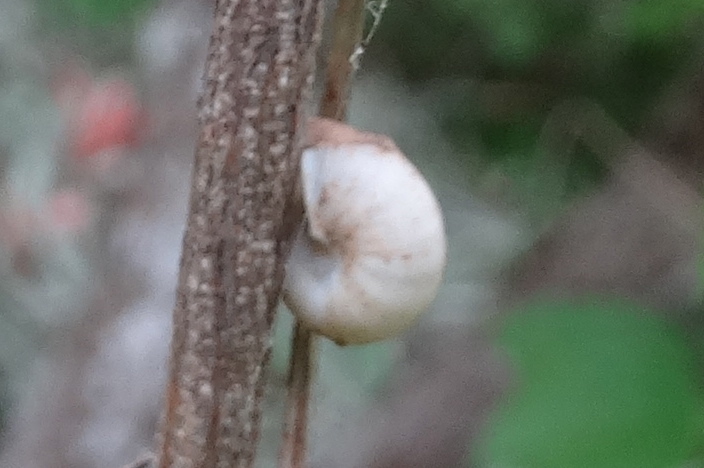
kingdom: Animalia
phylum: Mollusca
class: Gastropoda
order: Stylommatophora
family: Orthalicidae
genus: Orthalicus
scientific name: Orthalicus
